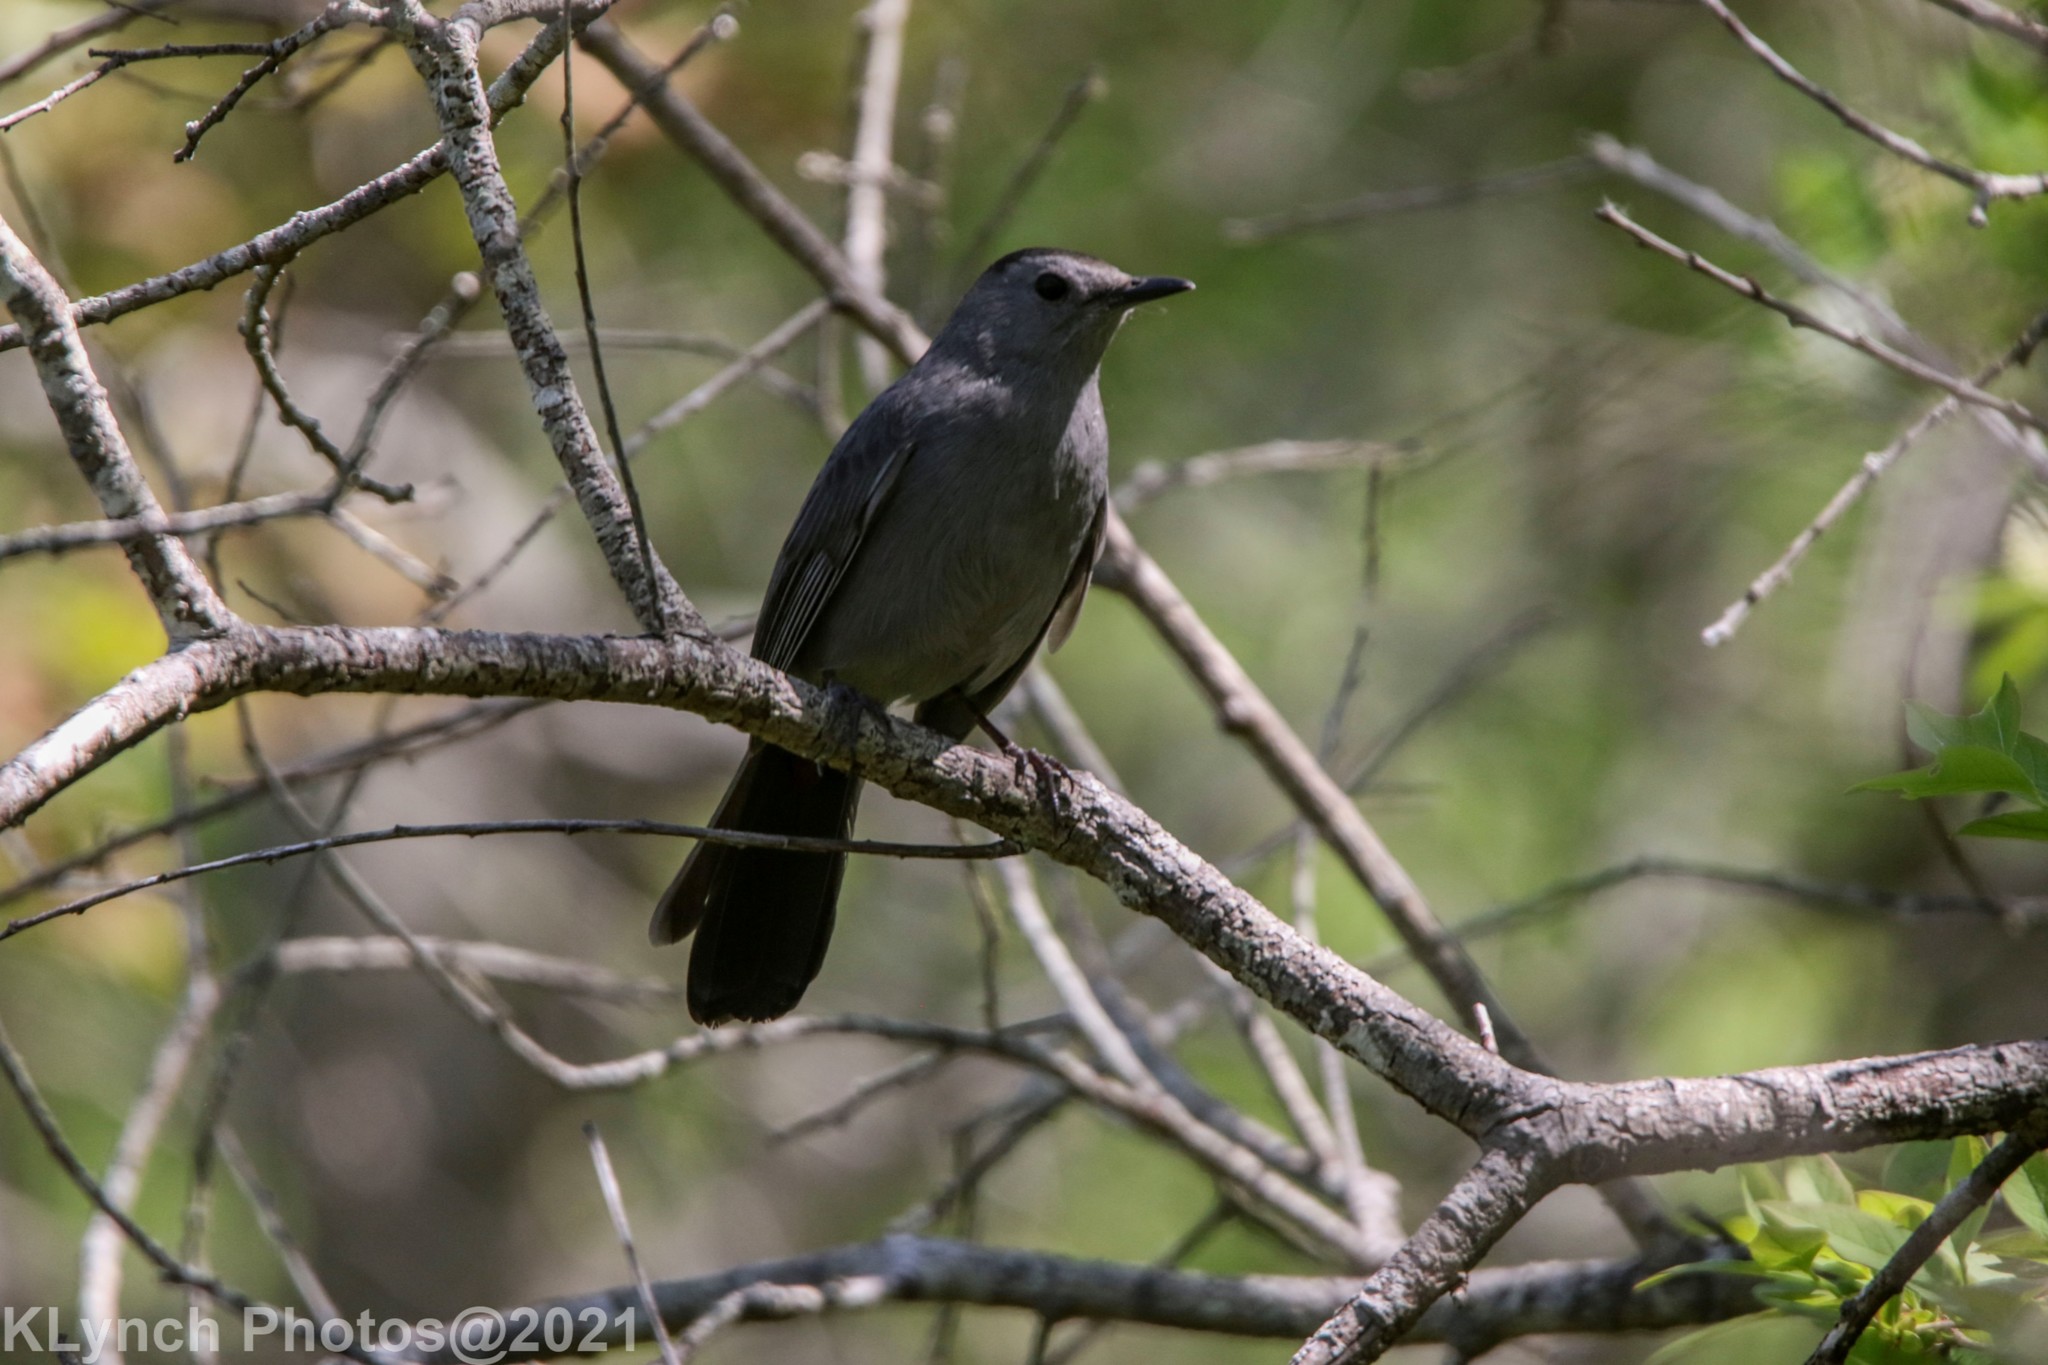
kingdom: Animalia
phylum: Chordata
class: Aves
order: Passeriformes
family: Mimidae
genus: Dumetella
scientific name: Dumetella carolinensis
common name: Gray catbird
